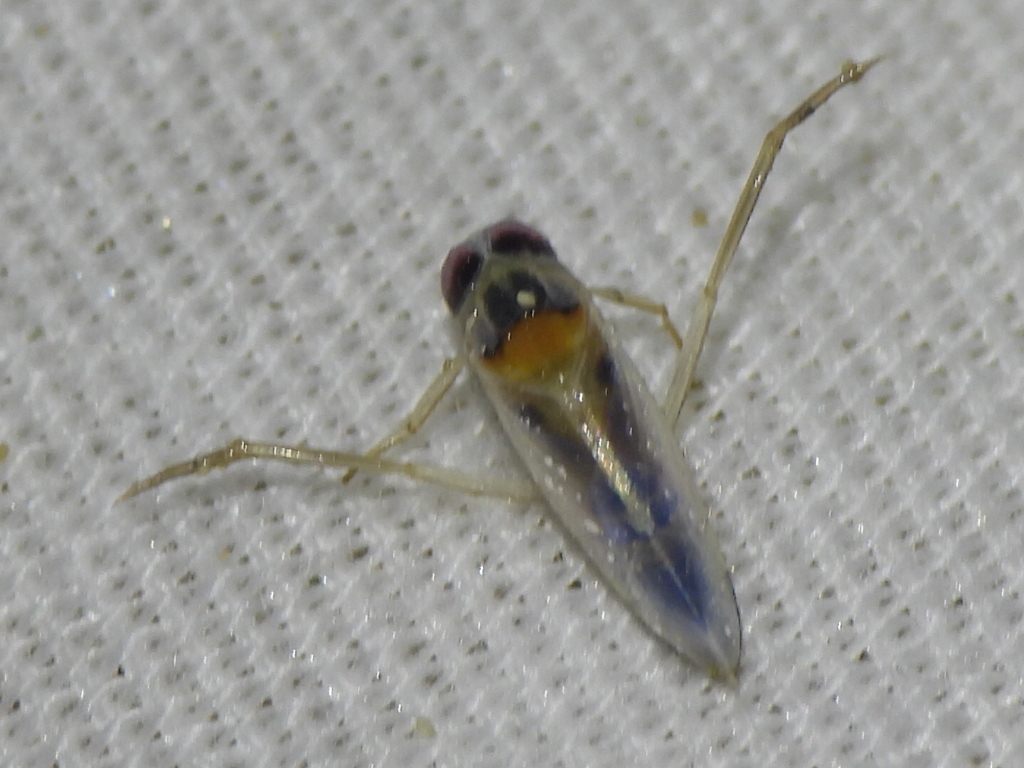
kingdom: Animalia
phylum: Arthropoda
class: Insecta
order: Hemiptera
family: Notonectidae
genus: Buenoa
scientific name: Buenoa
